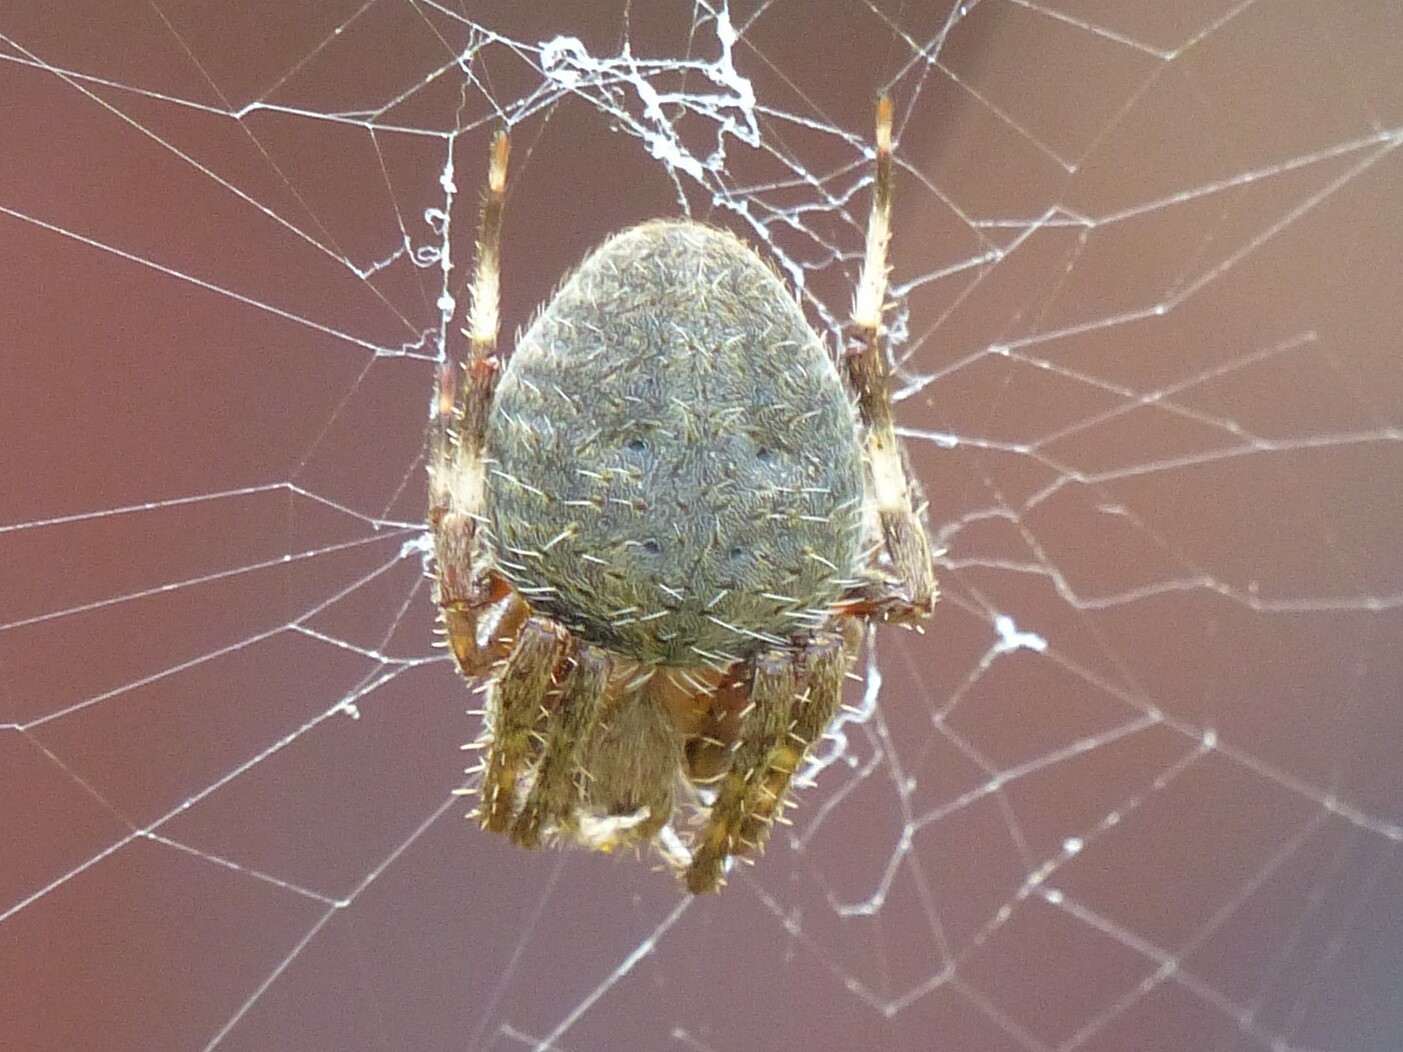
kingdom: Animalia
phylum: Arthropoda
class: Arachnida
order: Araneae
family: Araneidae
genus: Neoscona
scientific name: Neoscona crucifera
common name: Spotted orbweaver
